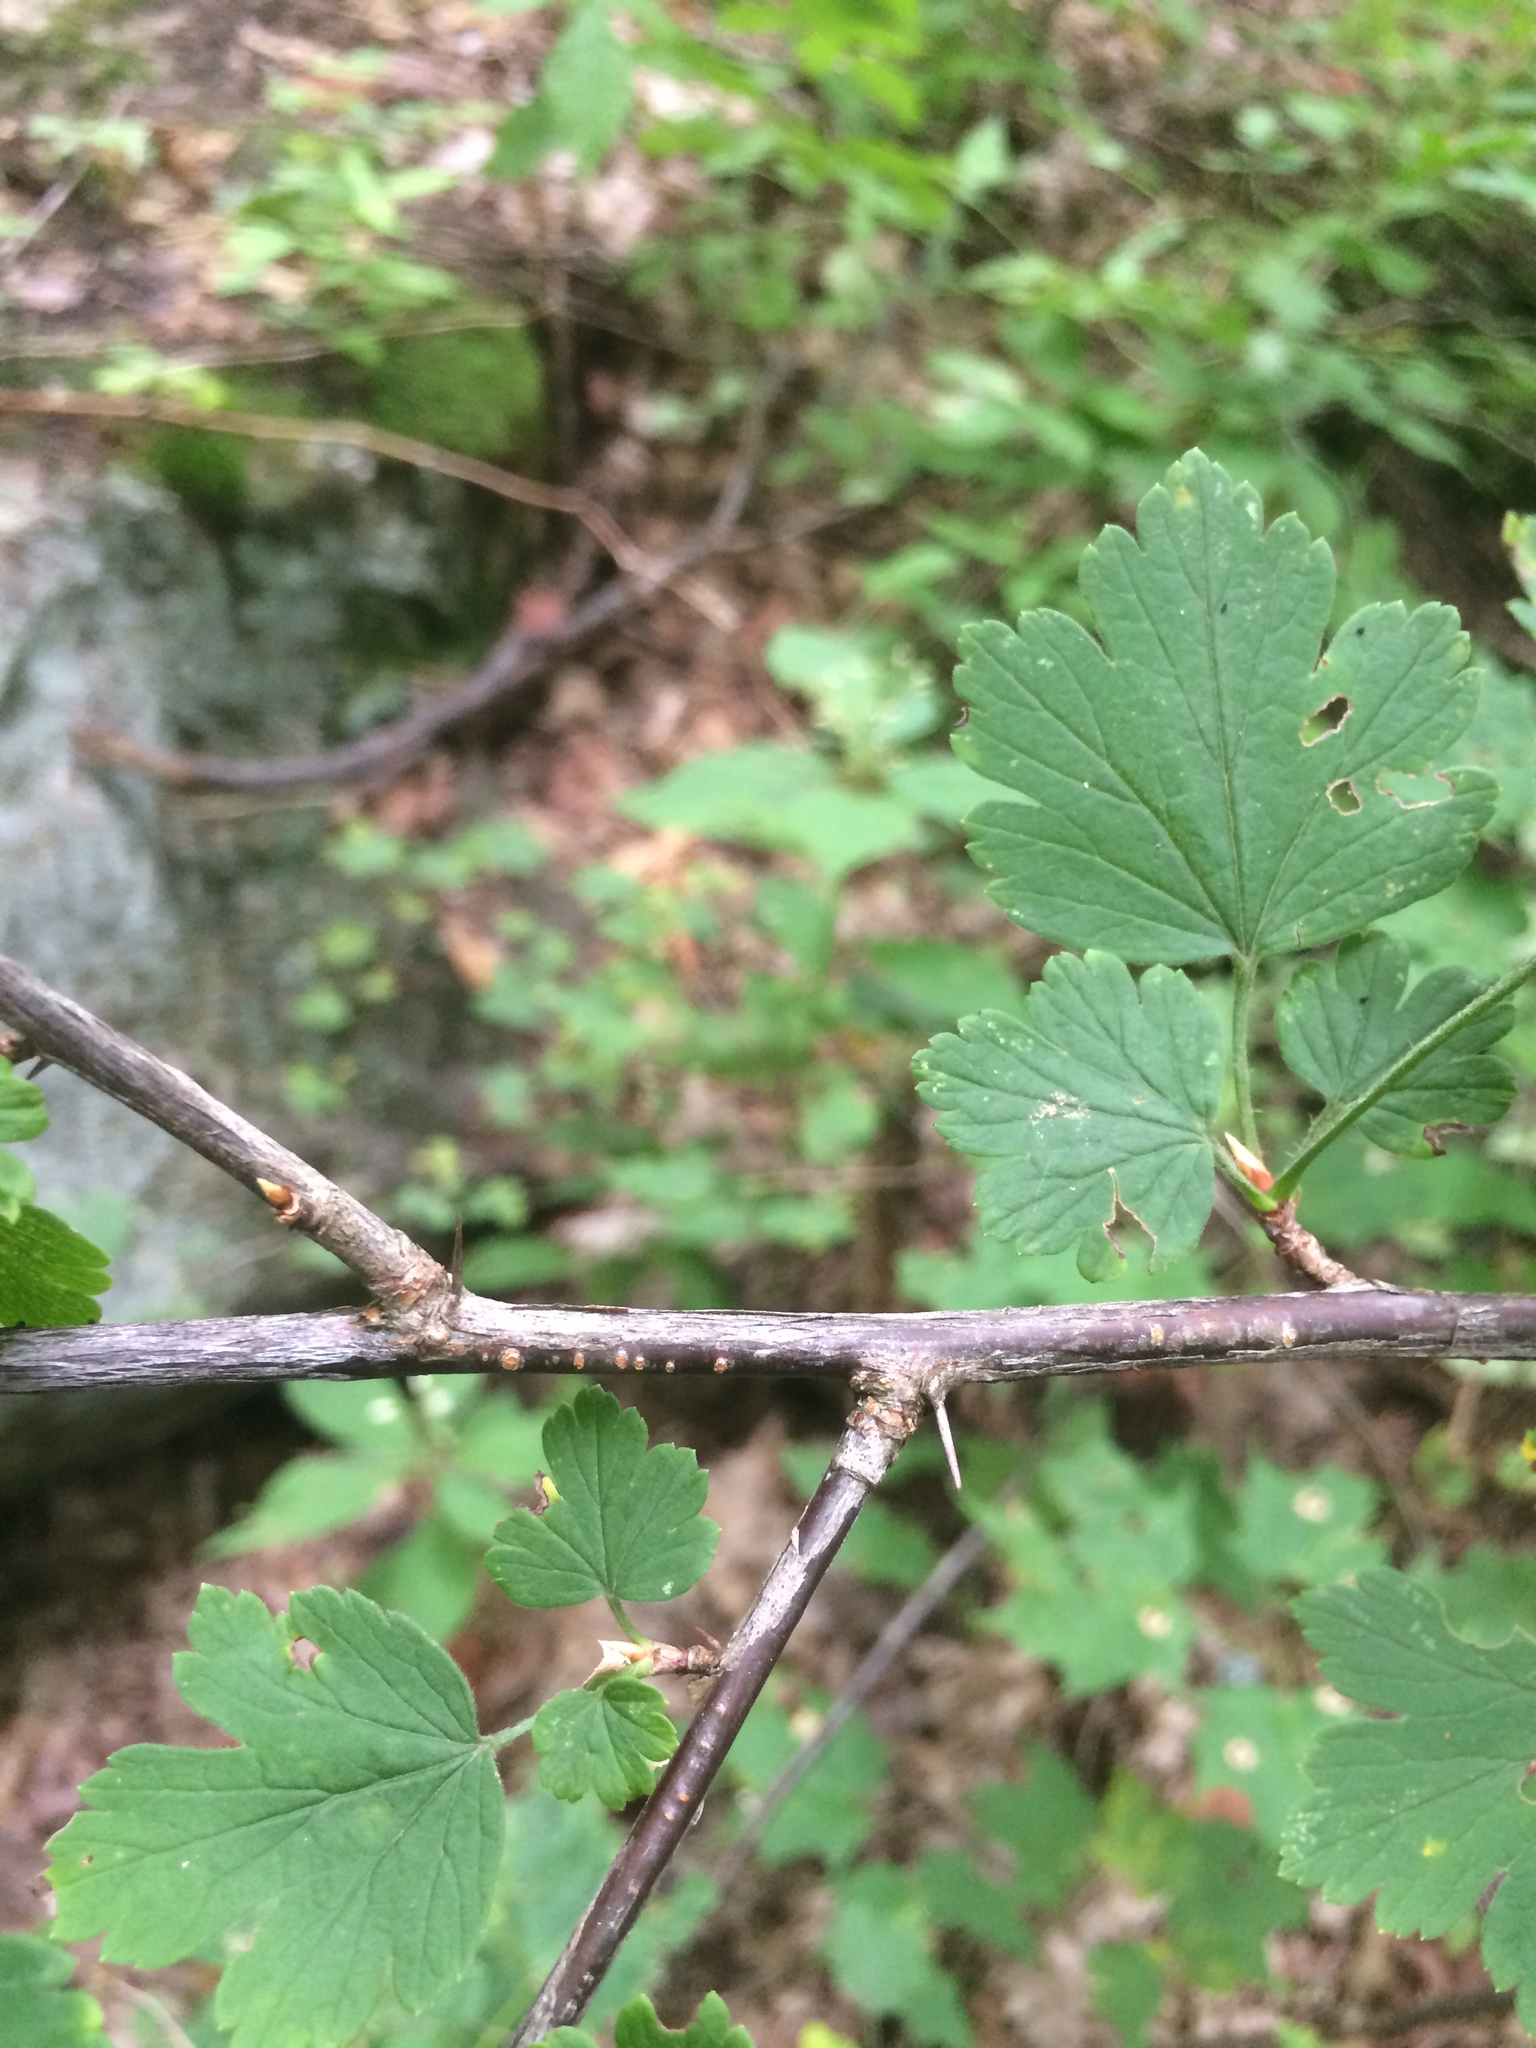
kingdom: Plantae
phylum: Tracheophyta
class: Magnoliopsida
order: Saxifragales
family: Grossulariaceae
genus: Ribes
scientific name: Ribes cynosbati
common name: American gooseberry
